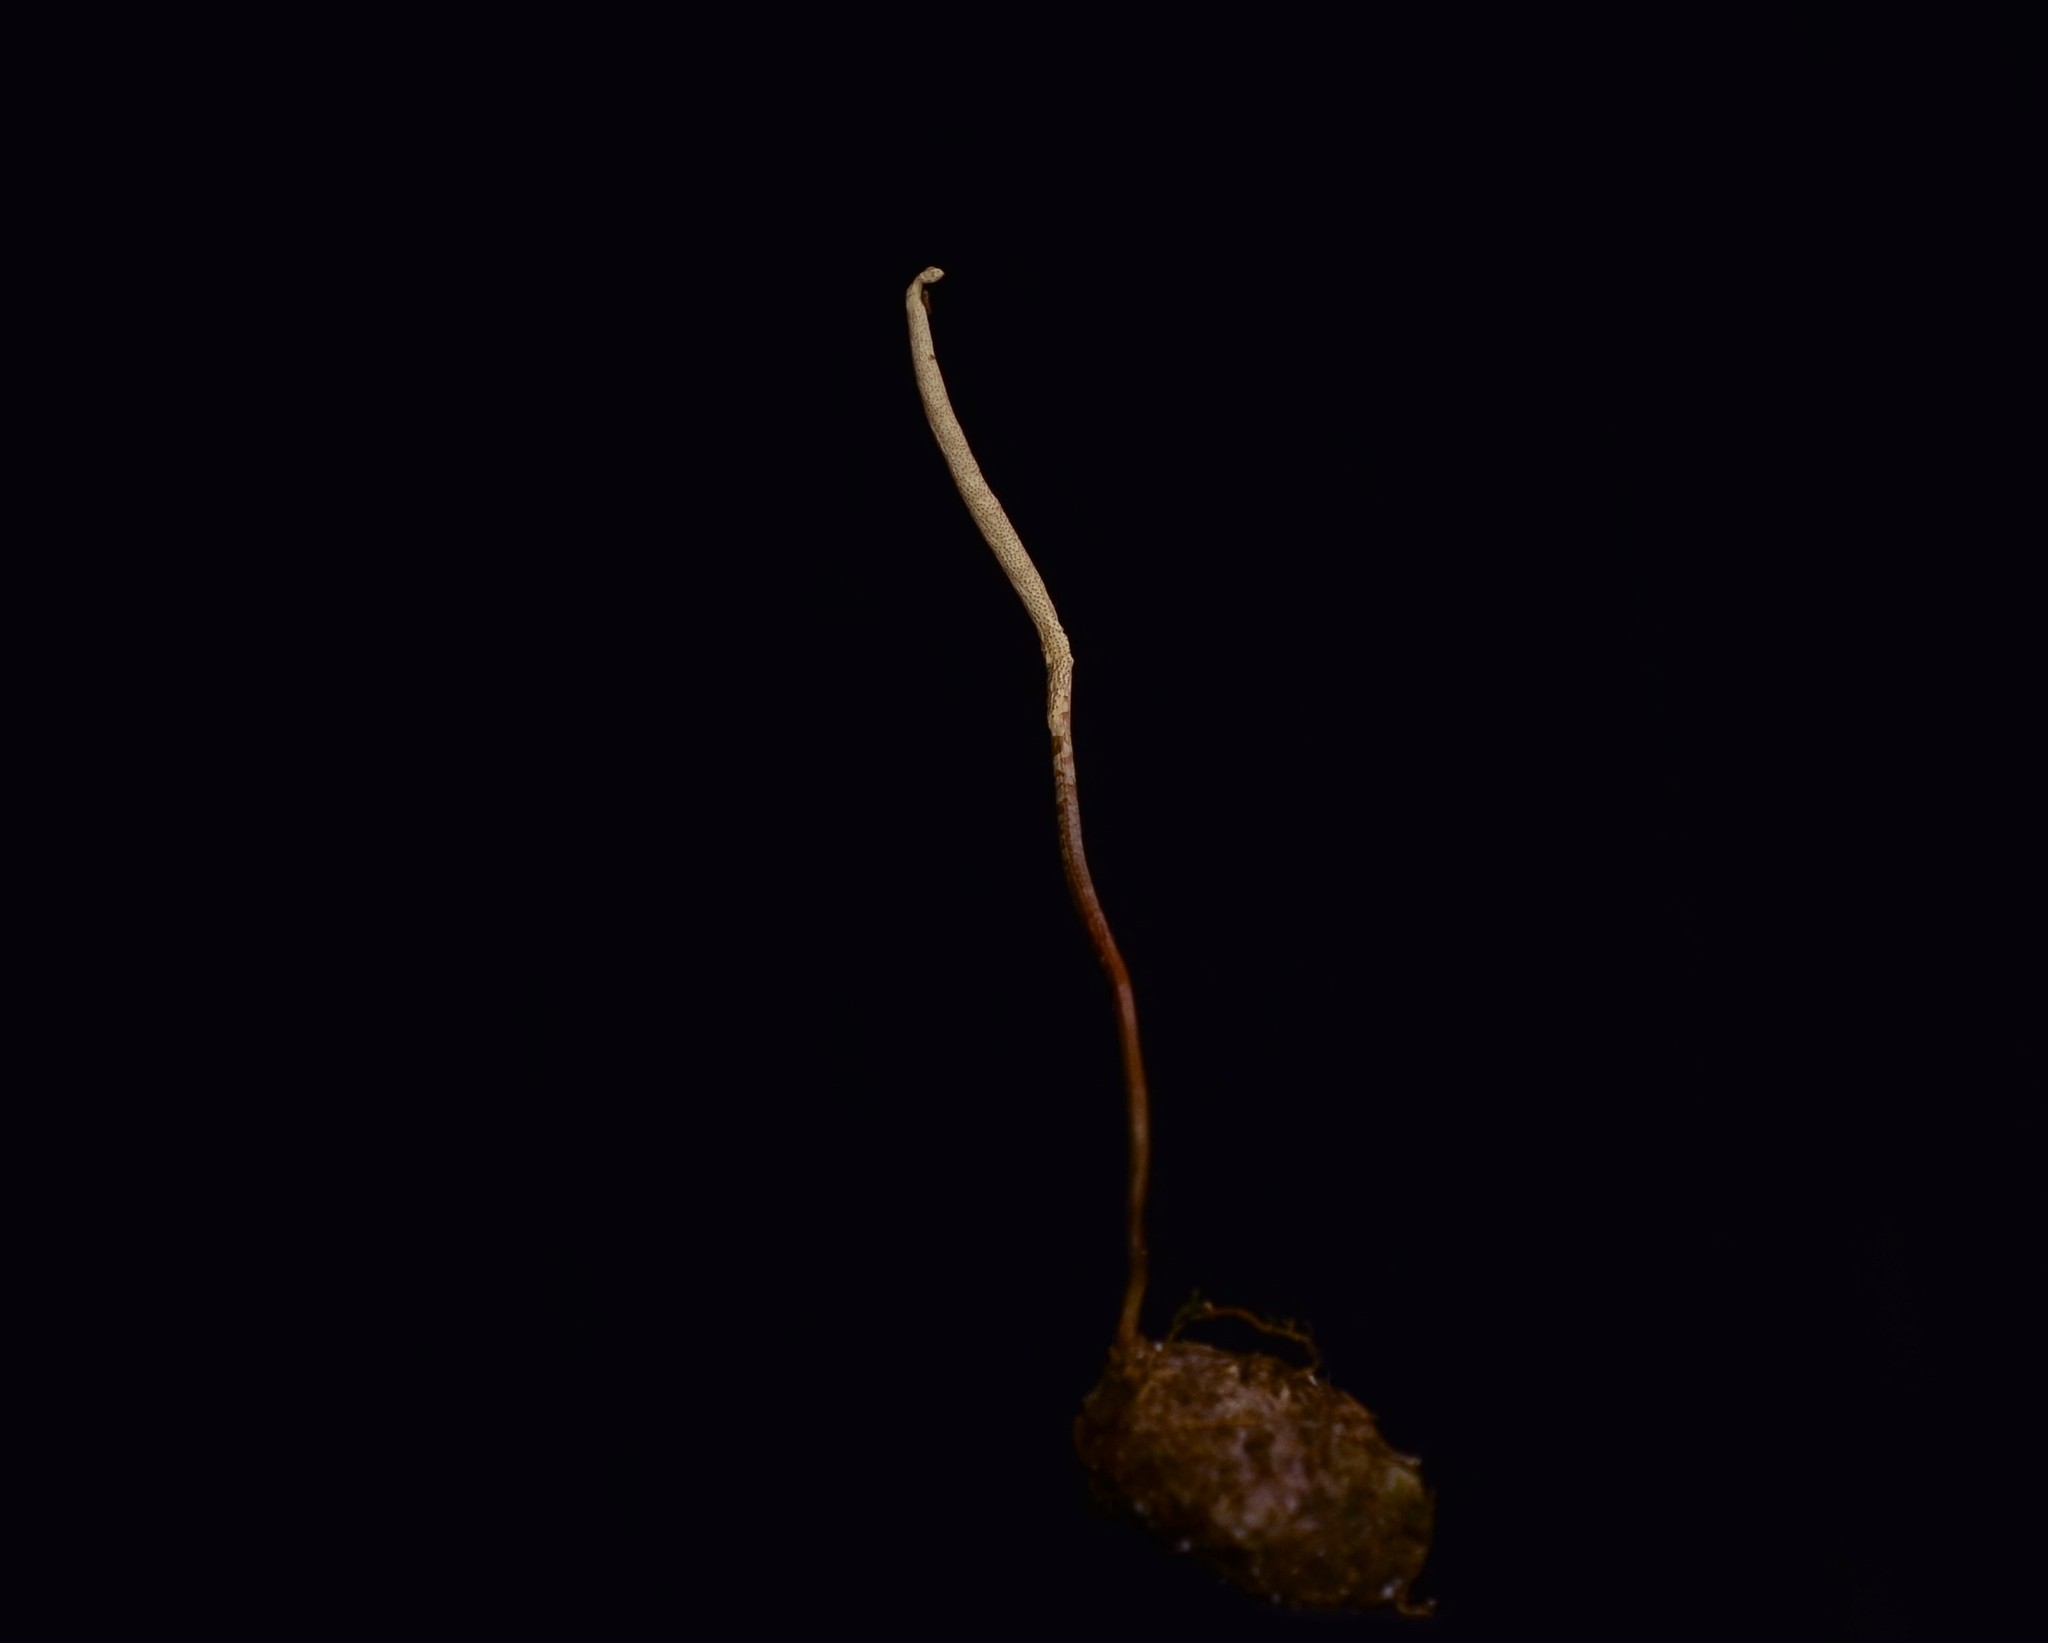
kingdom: Fungi
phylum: Ascomycota
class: Sordariomycetes
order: Hypocreales
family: Ophiocordycipitaceae
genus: Ophiocordyceps
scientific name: Ophiocordyceps elongata
